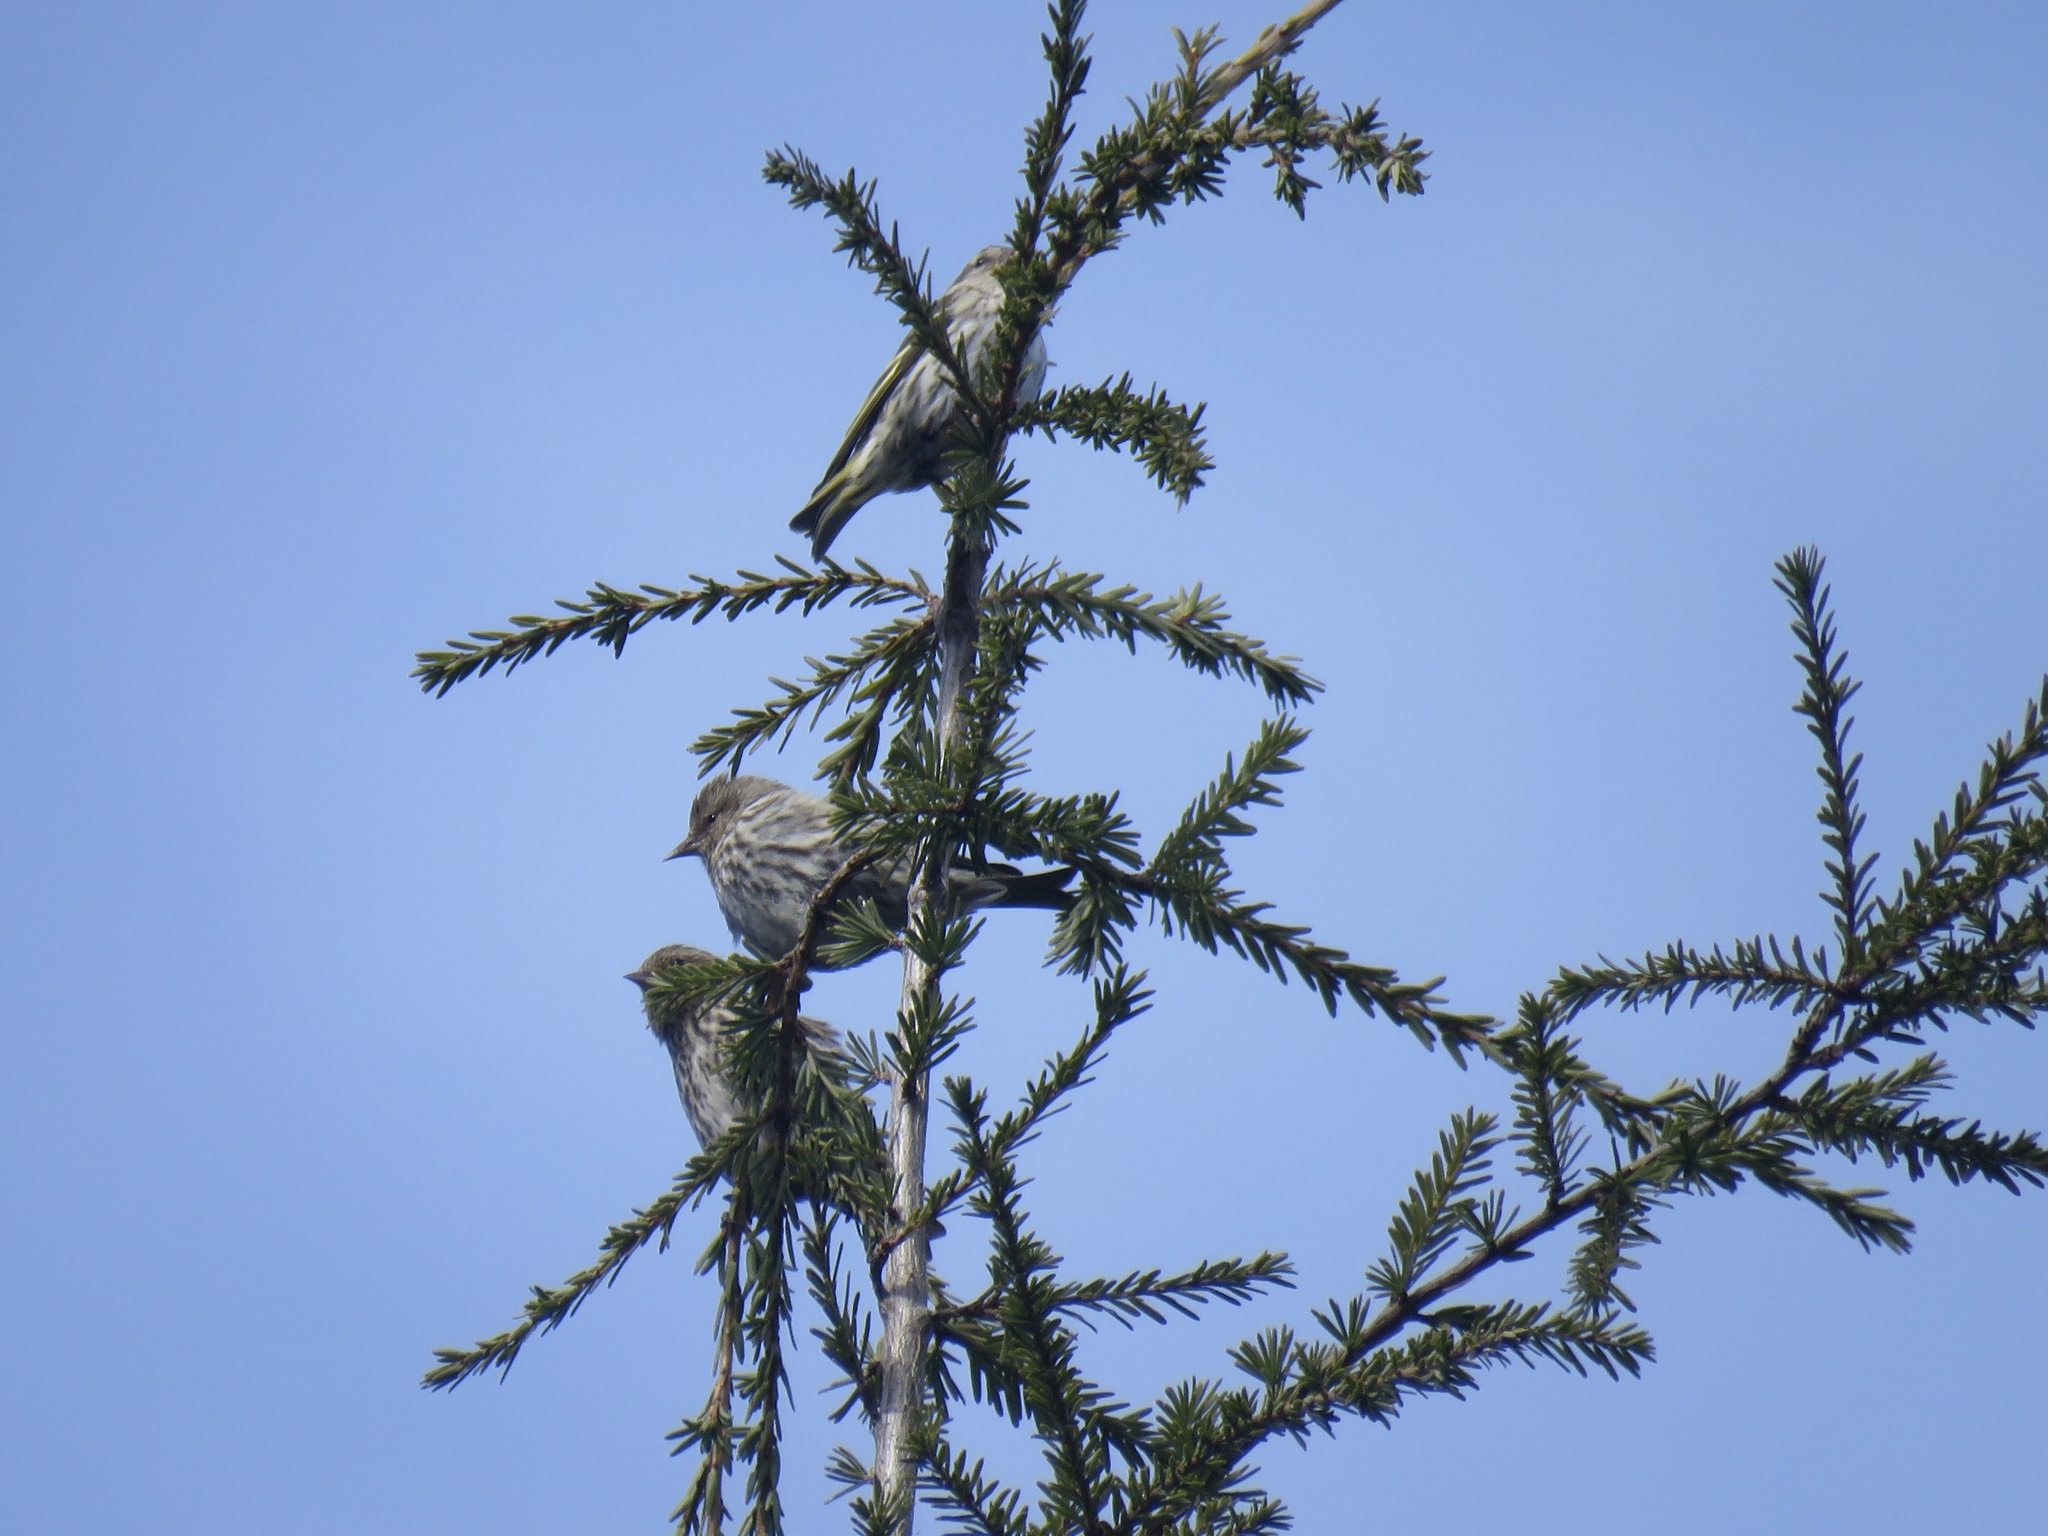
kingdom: Animalia
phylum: Chordata
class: Aves
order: Passeriformes
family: Fringillidae
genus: Spinus
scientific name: Spinus pinus
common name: Pine siskin
